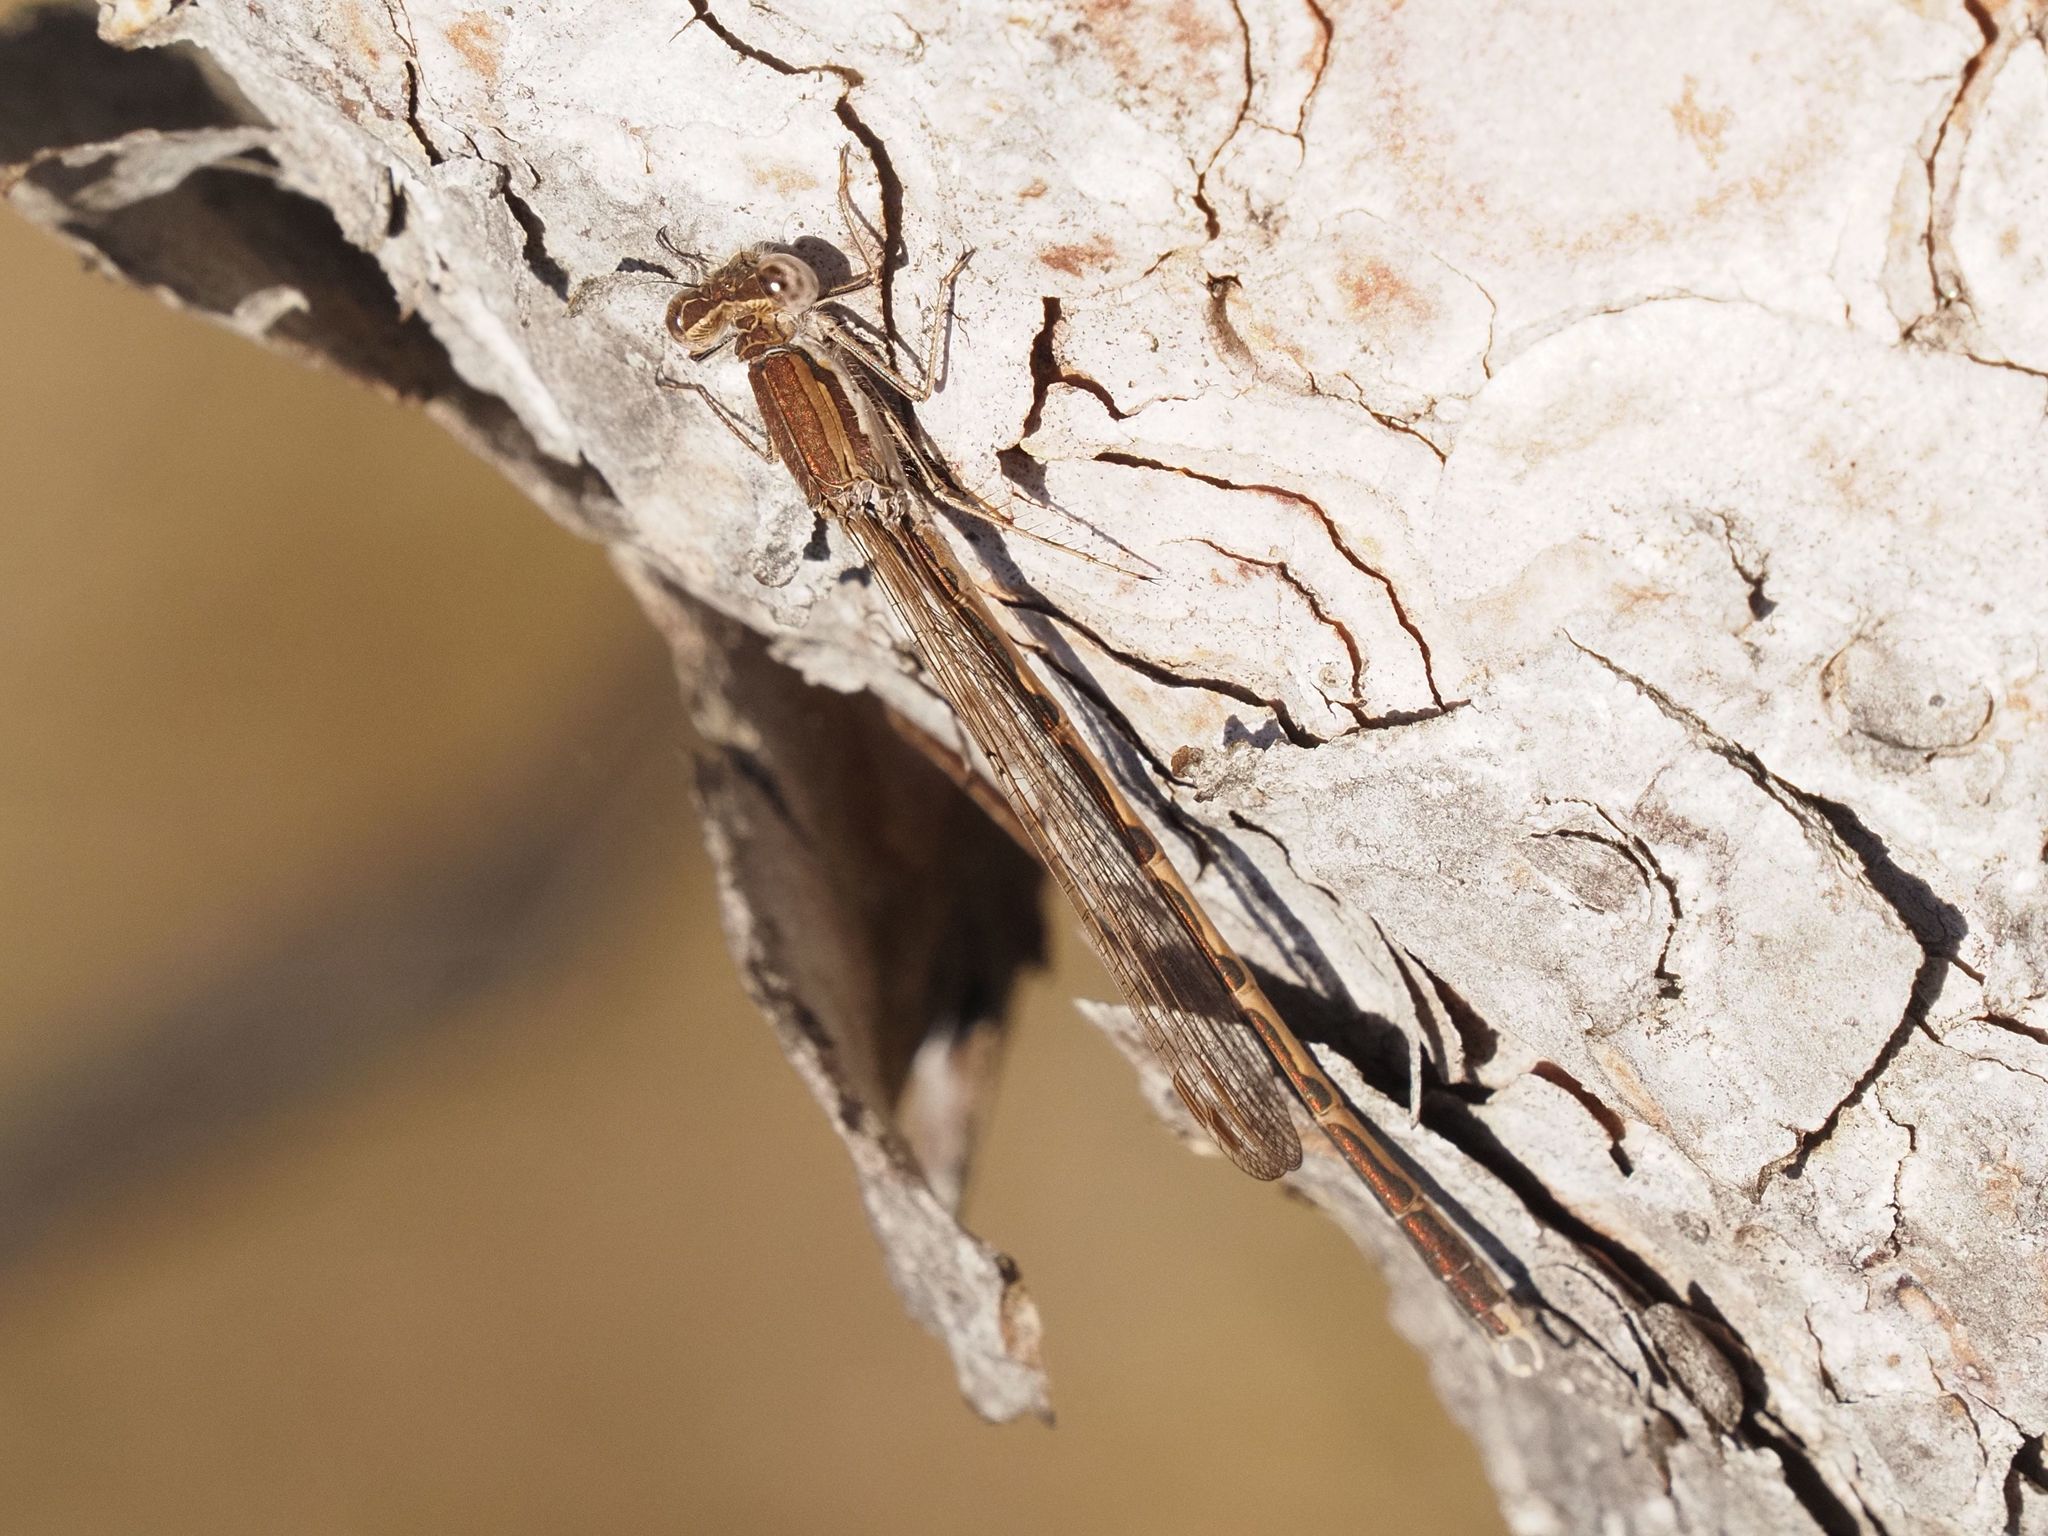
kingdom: Animalia
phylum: Arthropoda
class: Insecta
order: Odonata
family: Lestidae
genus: Sympecma
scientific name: Sympecma fusca
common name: Common winter damsel
